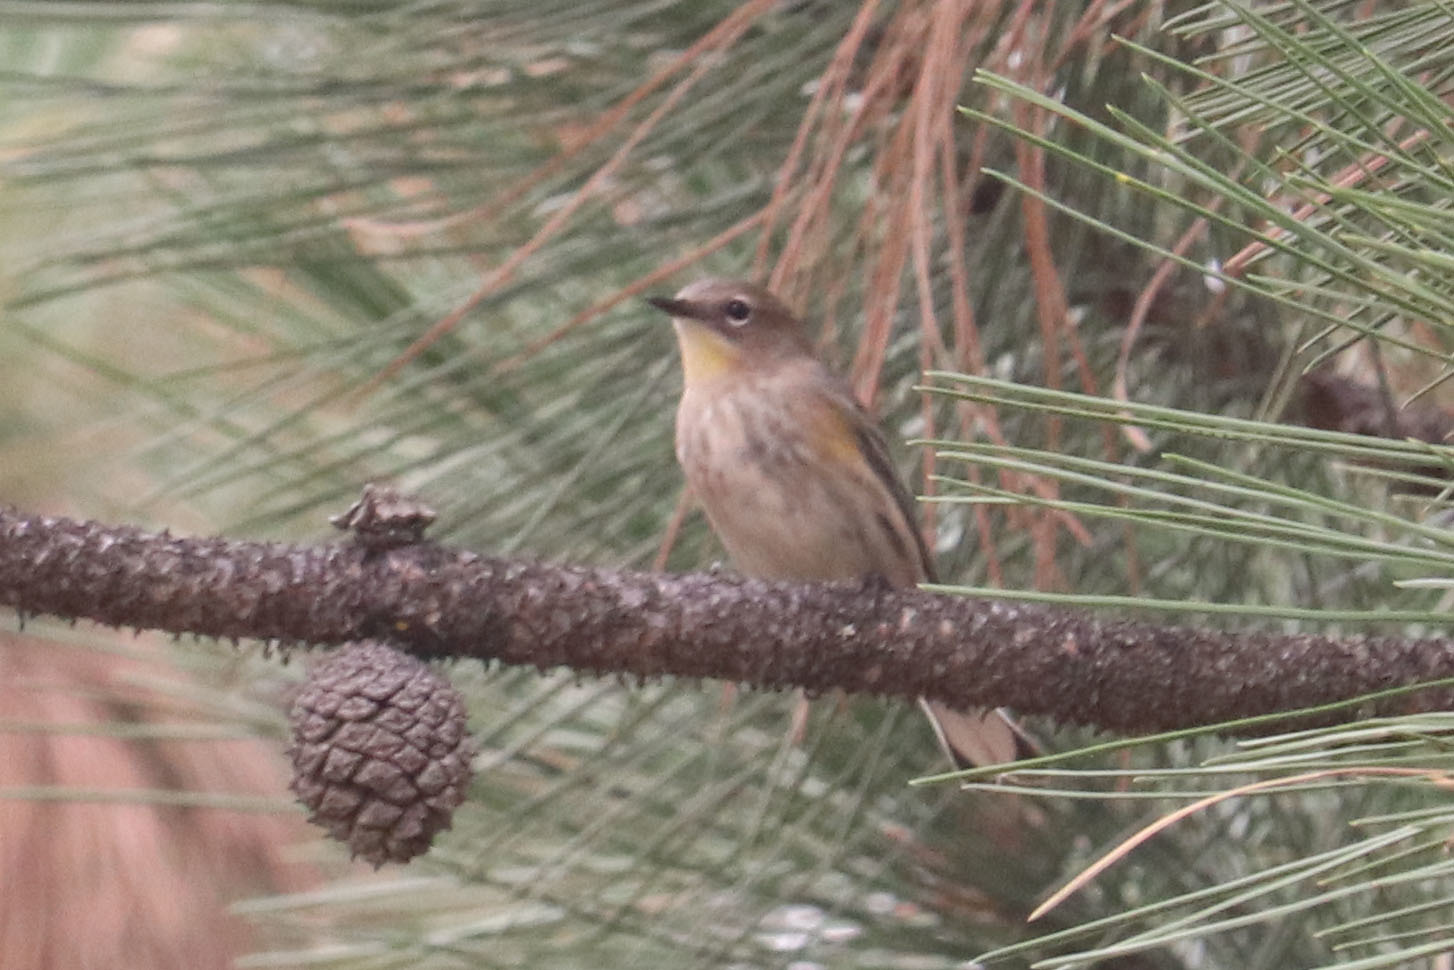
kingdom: Animalia
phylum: Chordata
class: Aves
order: Passeriformes
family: Parulidae
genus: Setophaga
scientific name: Setophaga coronata
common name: Myrtle warbler
